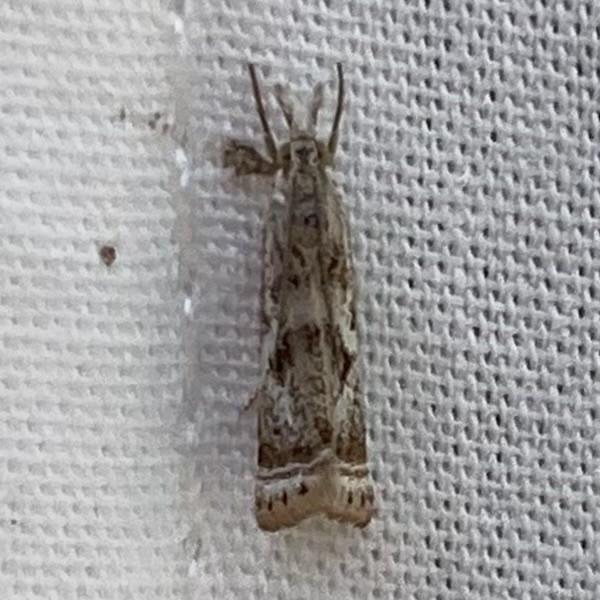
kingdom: Animalia
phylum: Arthropoda
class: Insecta
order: Lepidoptera
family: Crambidae
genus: Microcrambus
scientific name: Microcrambus elegans
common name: Elegant grass-veneer
